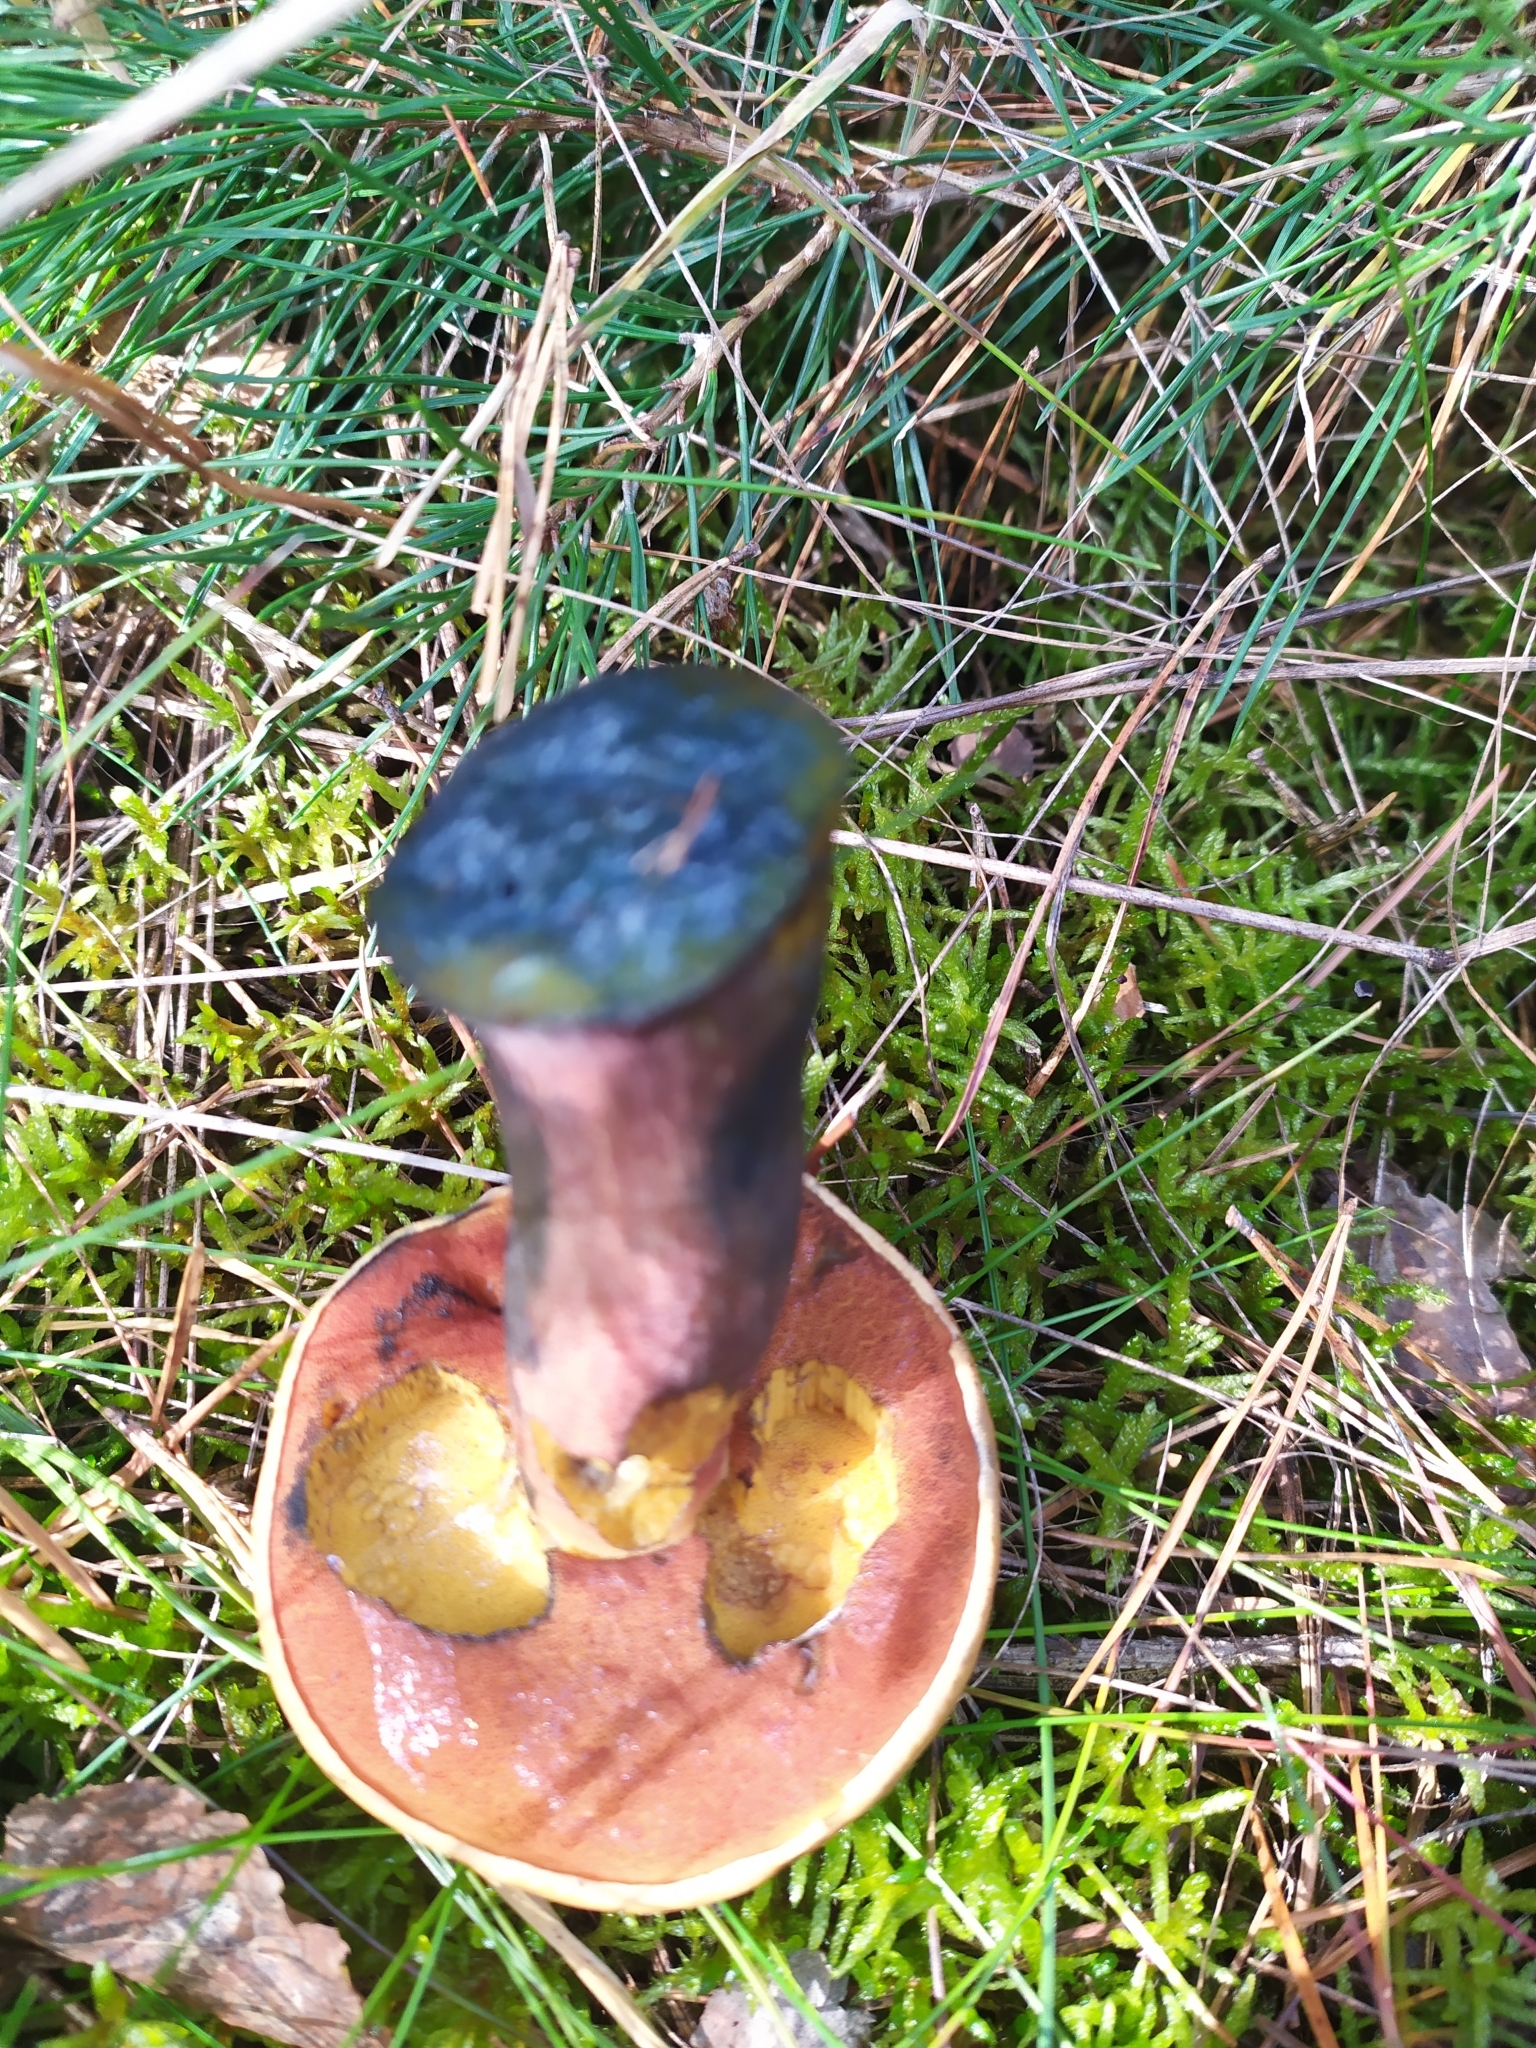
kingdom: Fungi
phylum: Basidiomycota
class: Agaricomycetes
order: Boletales
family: Boletaceae
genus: Neoboletus
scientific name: Neoboletus luridiformis
